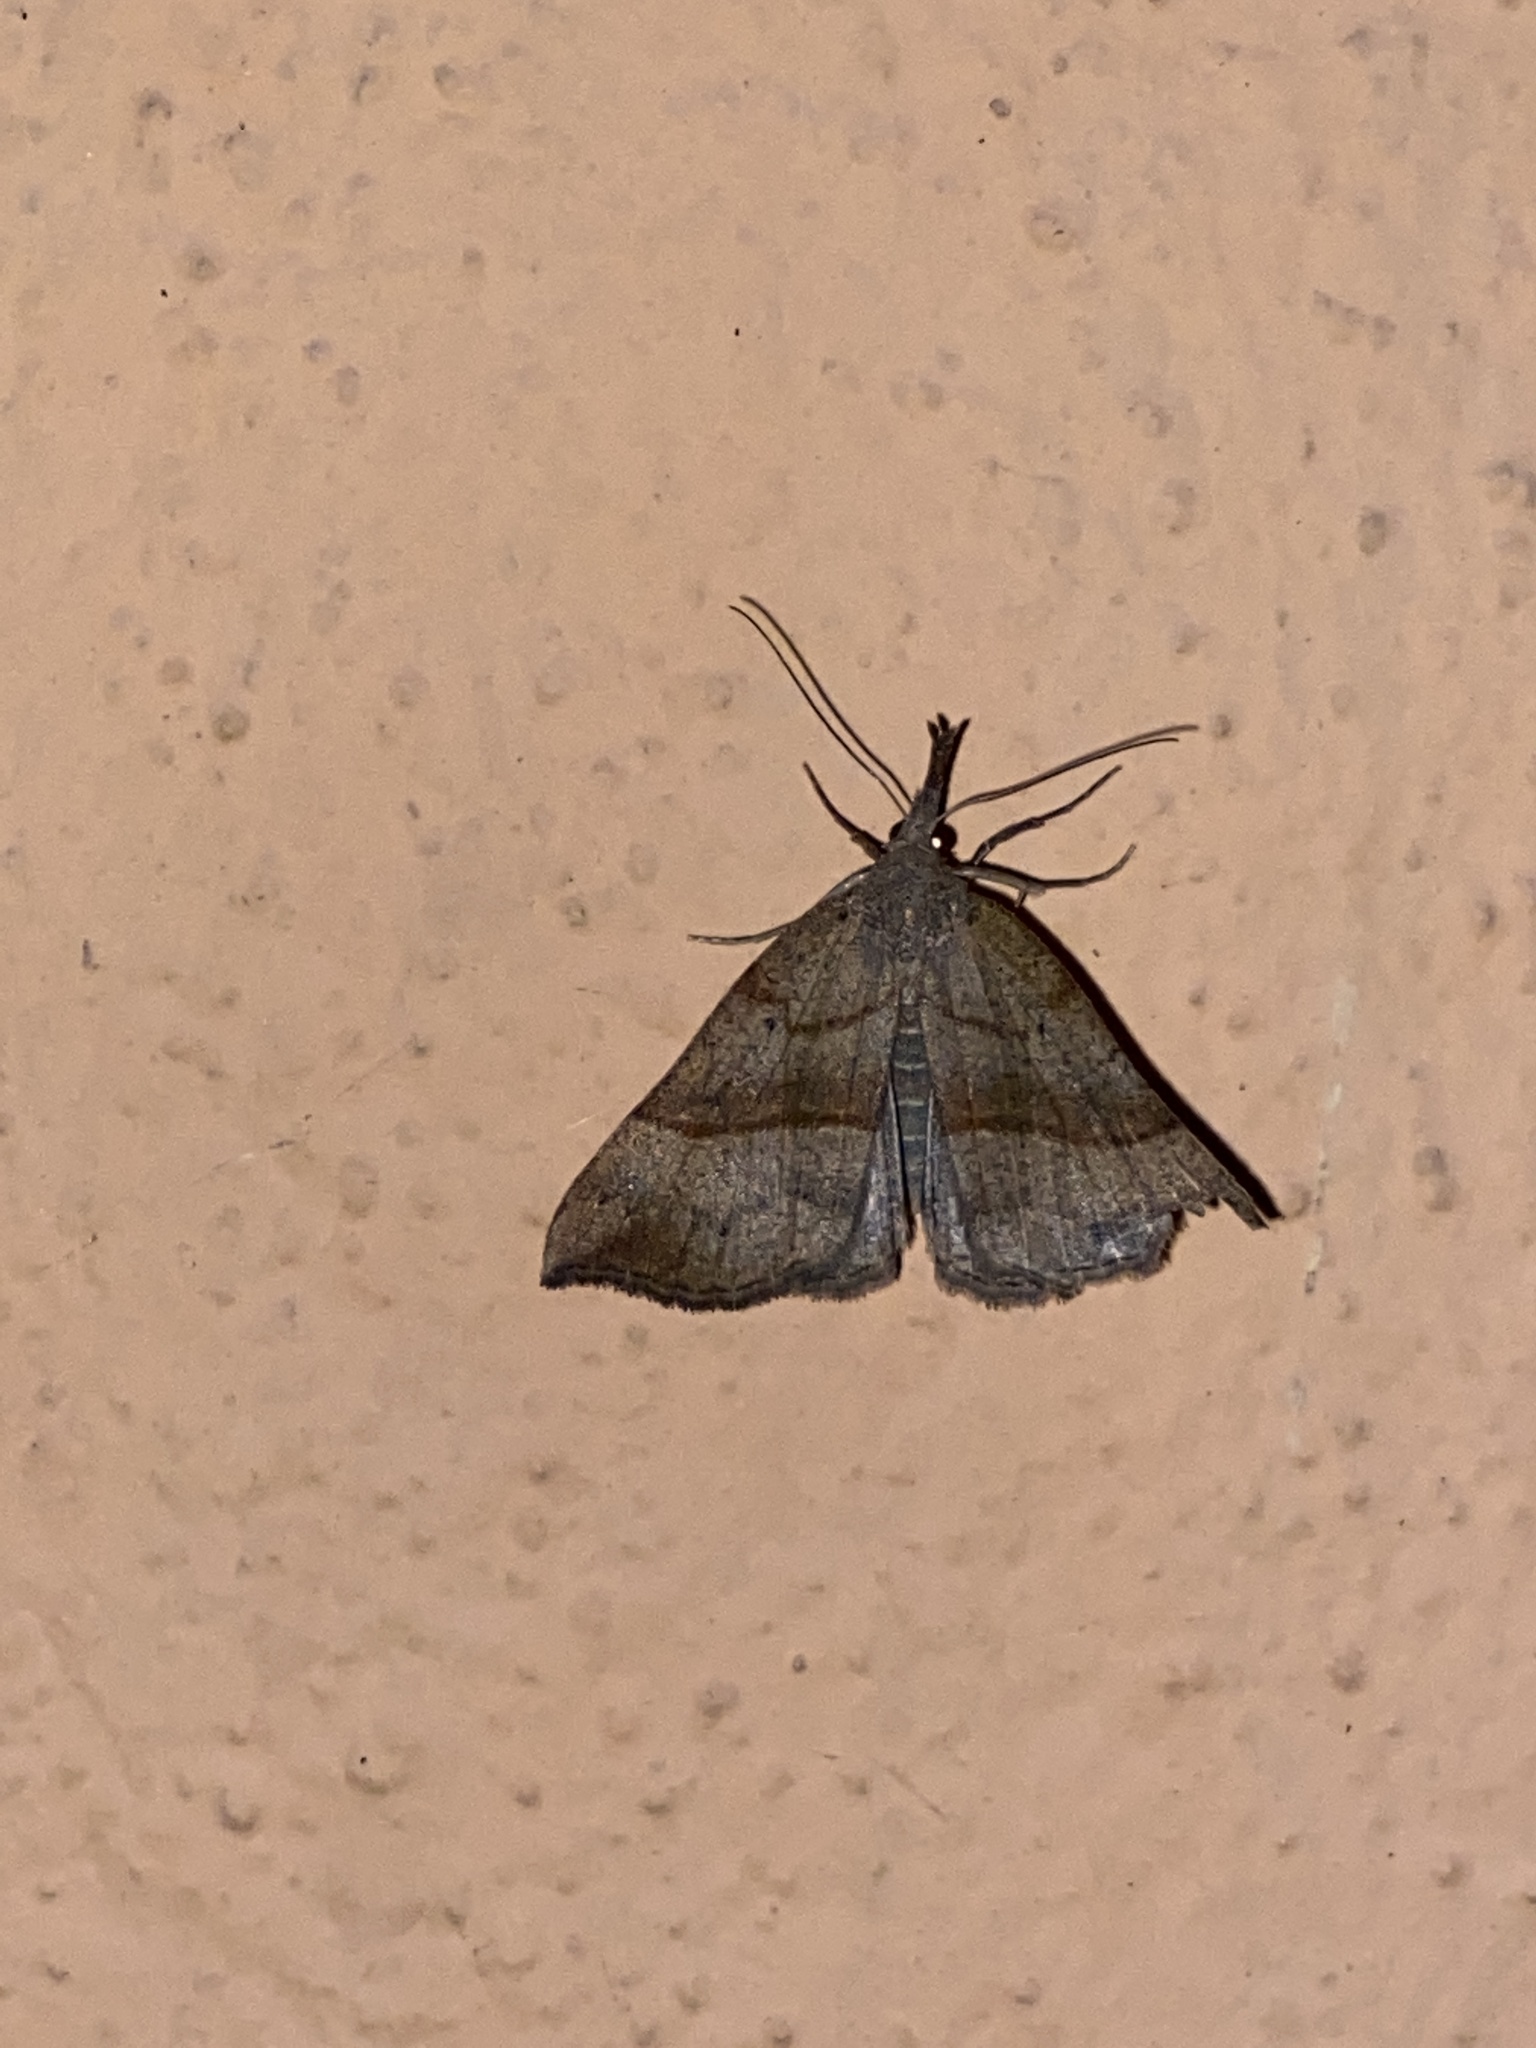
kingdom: Animalia
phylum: Arthropoda
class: Insecta
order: Lepidoptera
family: Erebidae
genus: Hypena
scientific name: Hypena proboscidalis
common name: Snout
